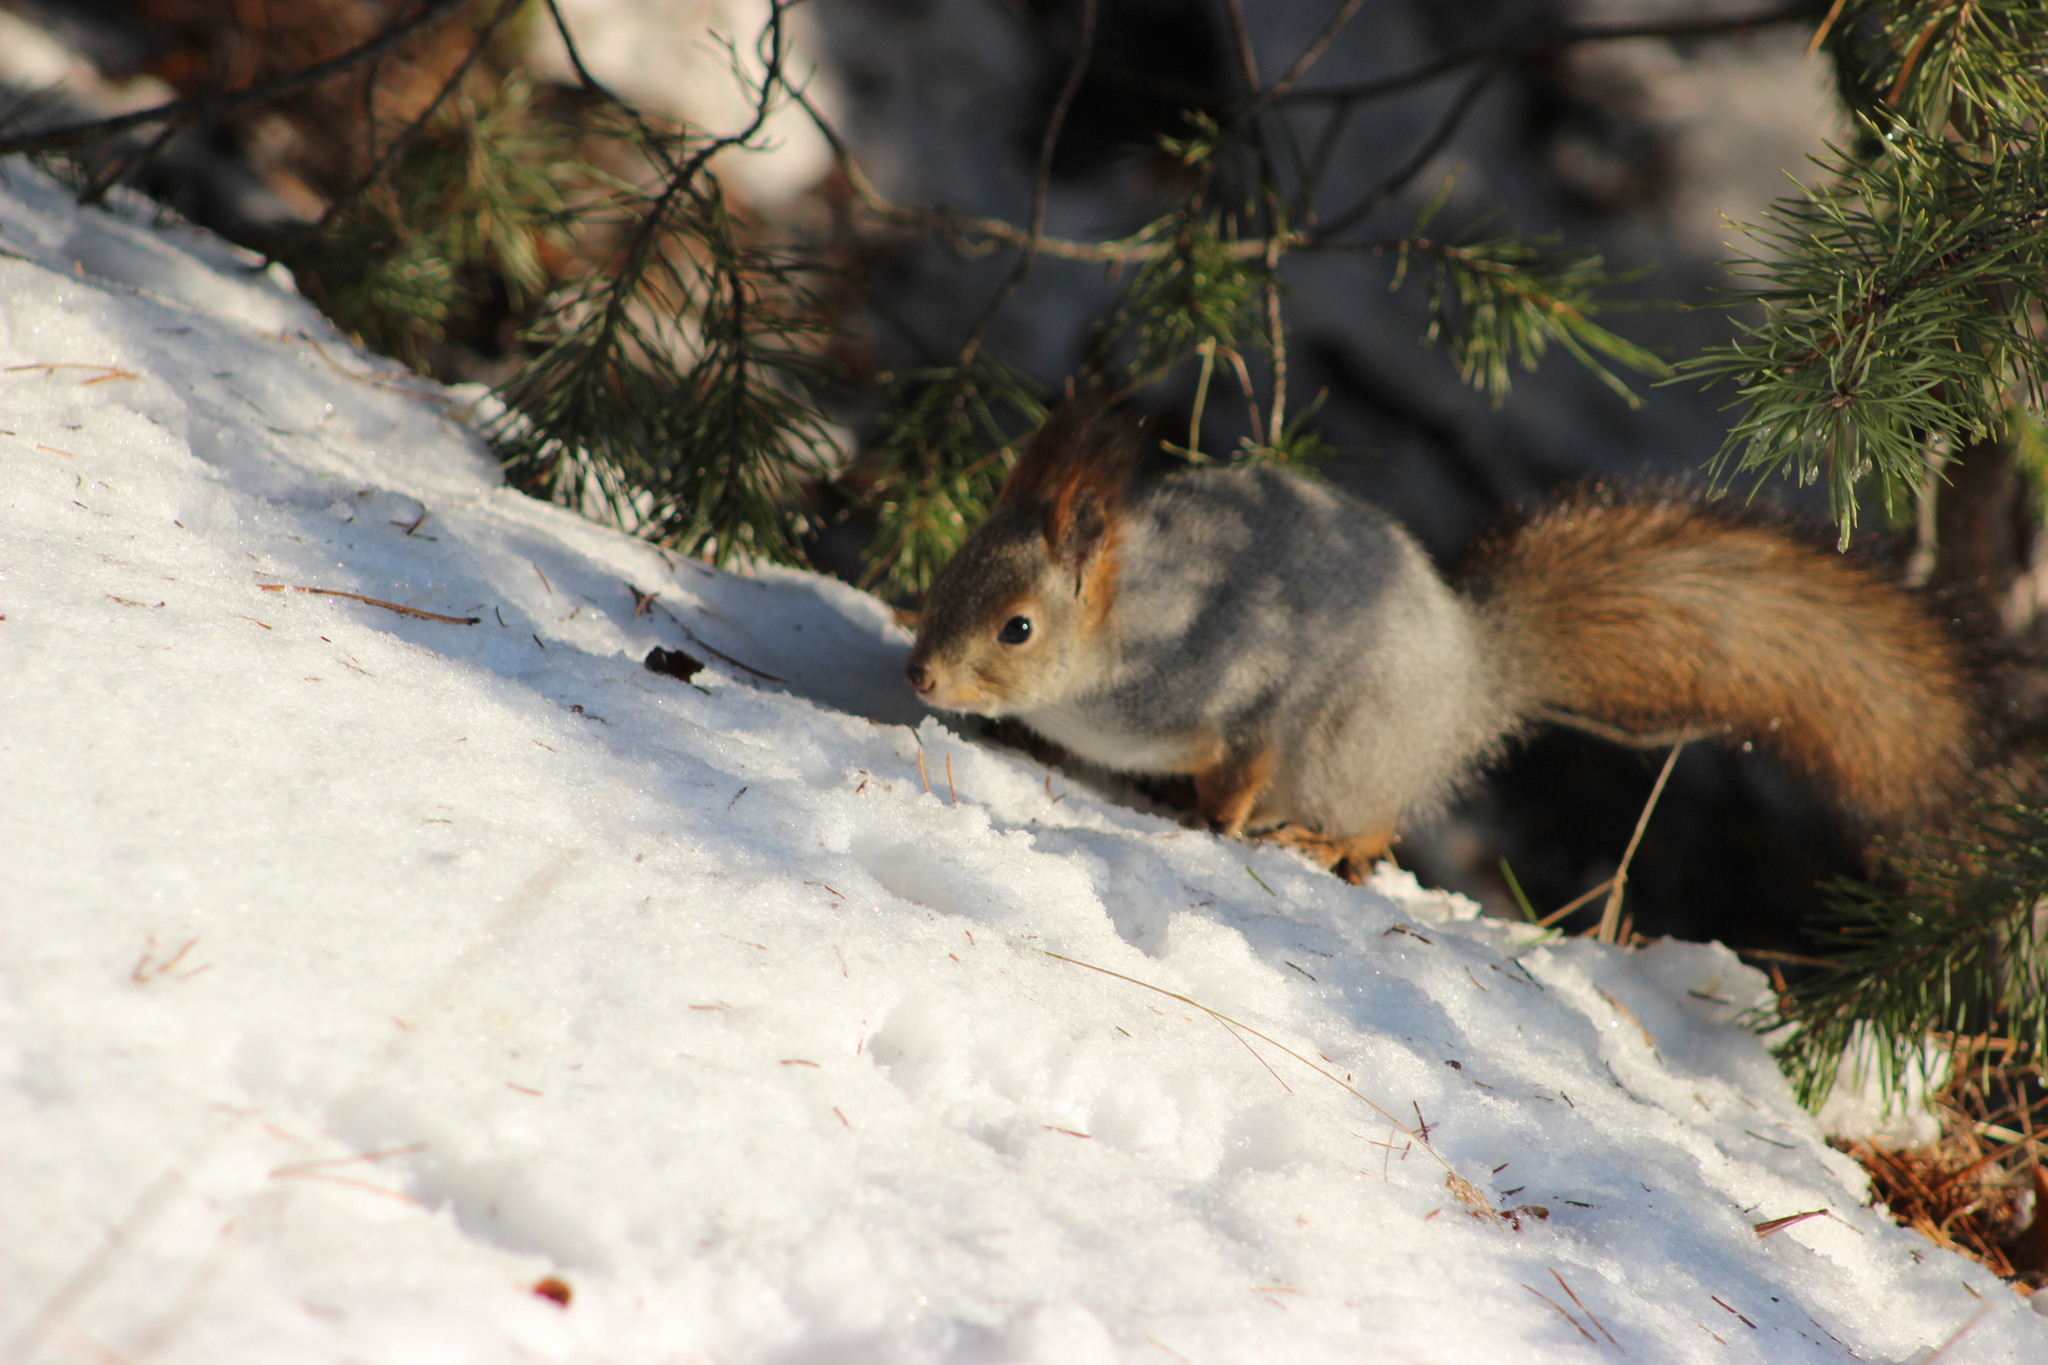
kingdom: Animalia
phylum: Chordata
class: Mammalia
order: Rodentia
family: Sciuridae
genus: Sciurus
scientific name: Sciurus vulgaris
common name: Eurasian red squirrel
